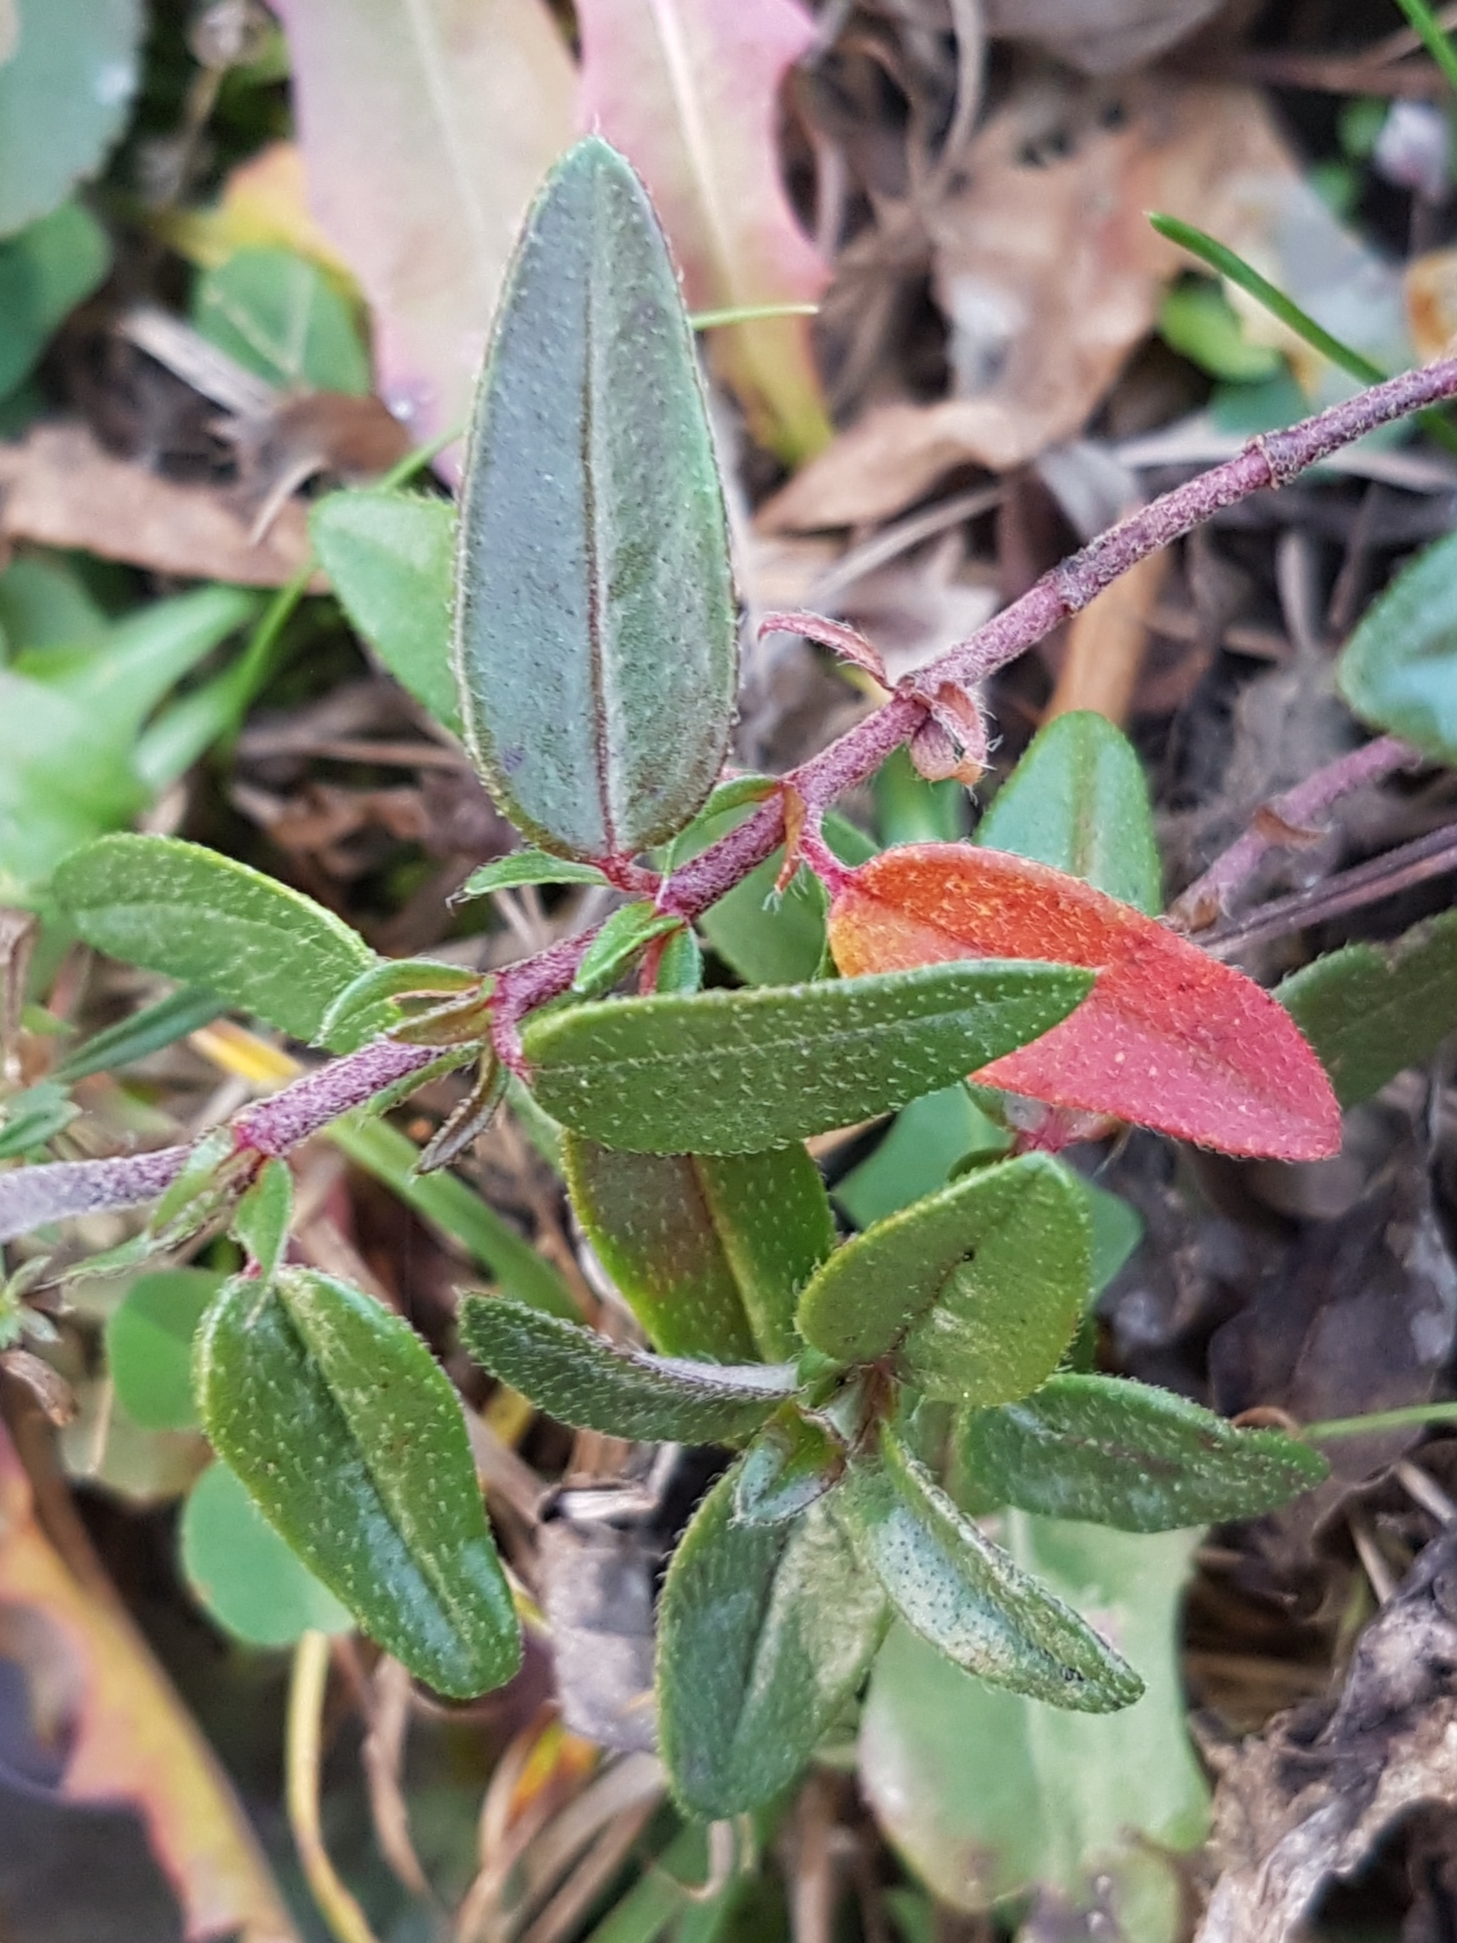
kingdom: Plantae
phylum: Tracheophyta
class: Magnoliopsida
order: Malvales
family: Cistaceae
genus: Helianthemum
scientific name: Helianthemum nummularium
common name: Common rock-rose
